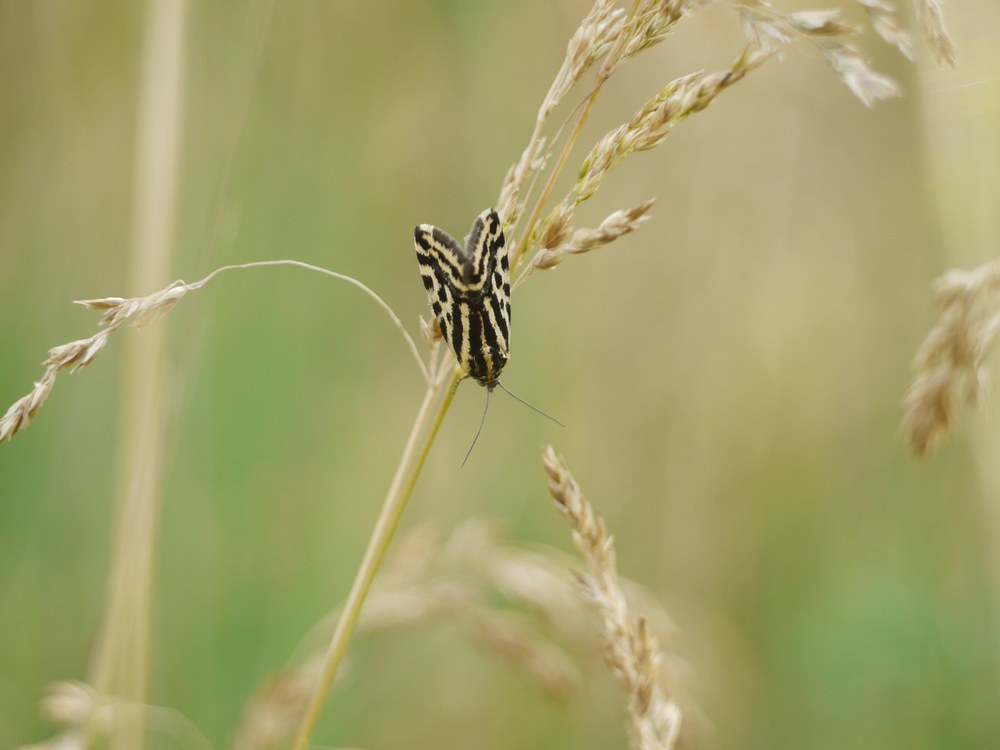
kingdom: Animalia
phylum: Arthropoda
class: Insecta
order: Lepidoptera
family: Noctuidae
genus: Acontia
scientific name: Acontia trabealis
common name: Spotted sulphur
